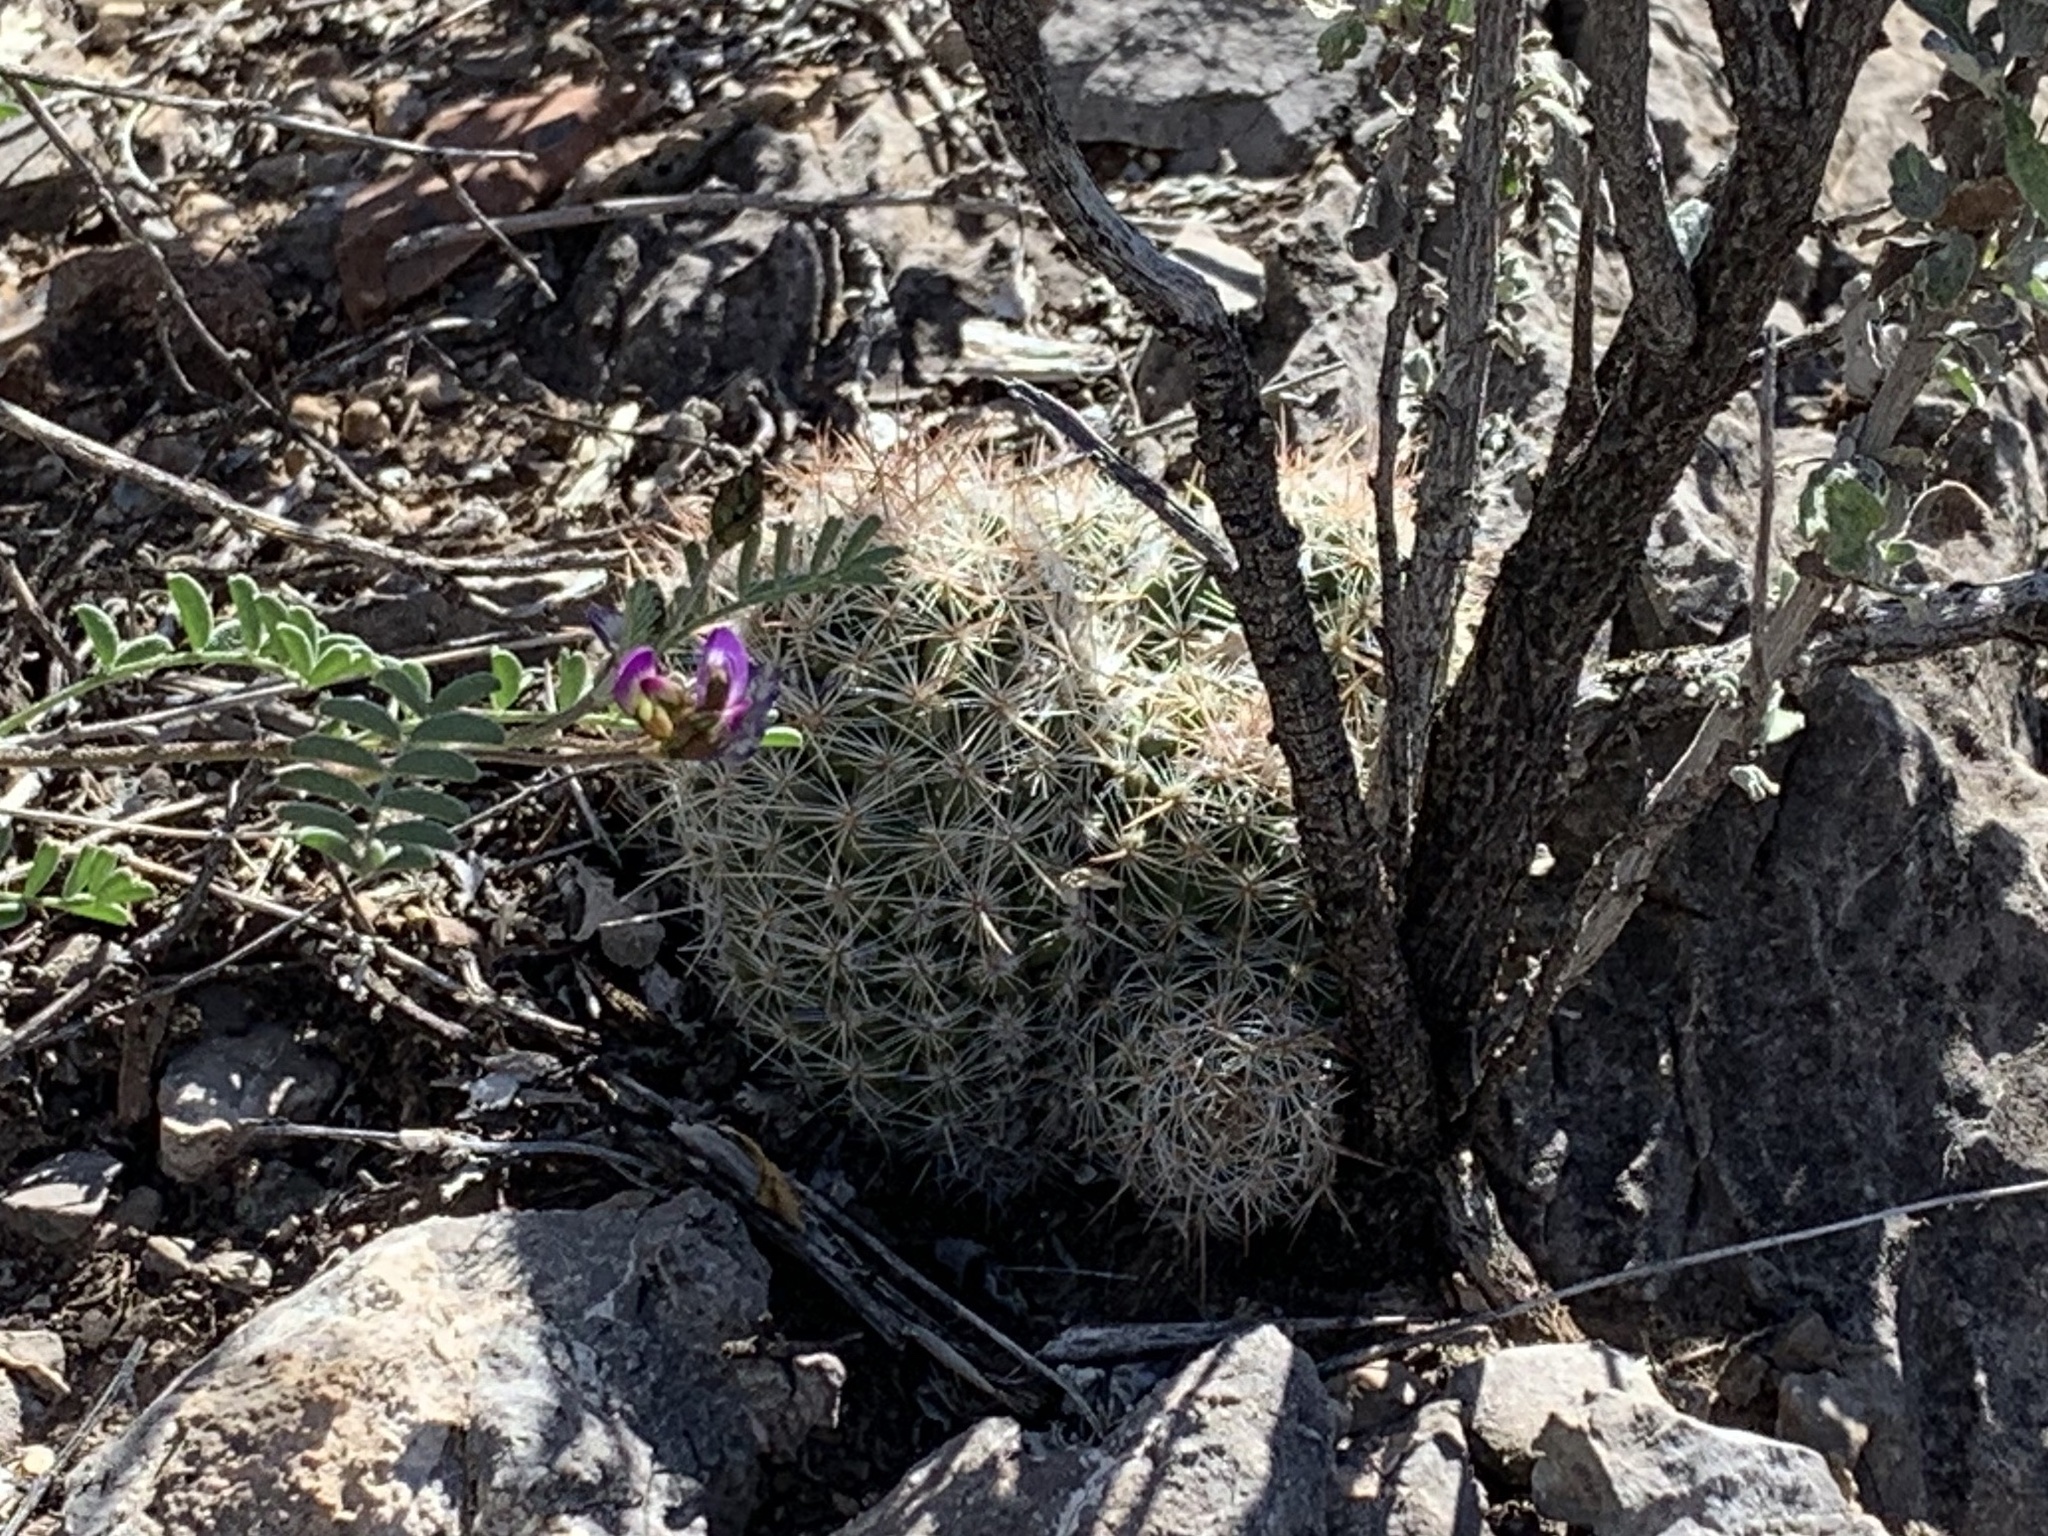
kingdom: Plantae
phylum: Tracheophyta
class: Magnoliopsida
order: Caryophyllales
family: Cactaceae
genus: Pelecyphora
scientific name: Pelecyphora tuberculosa
